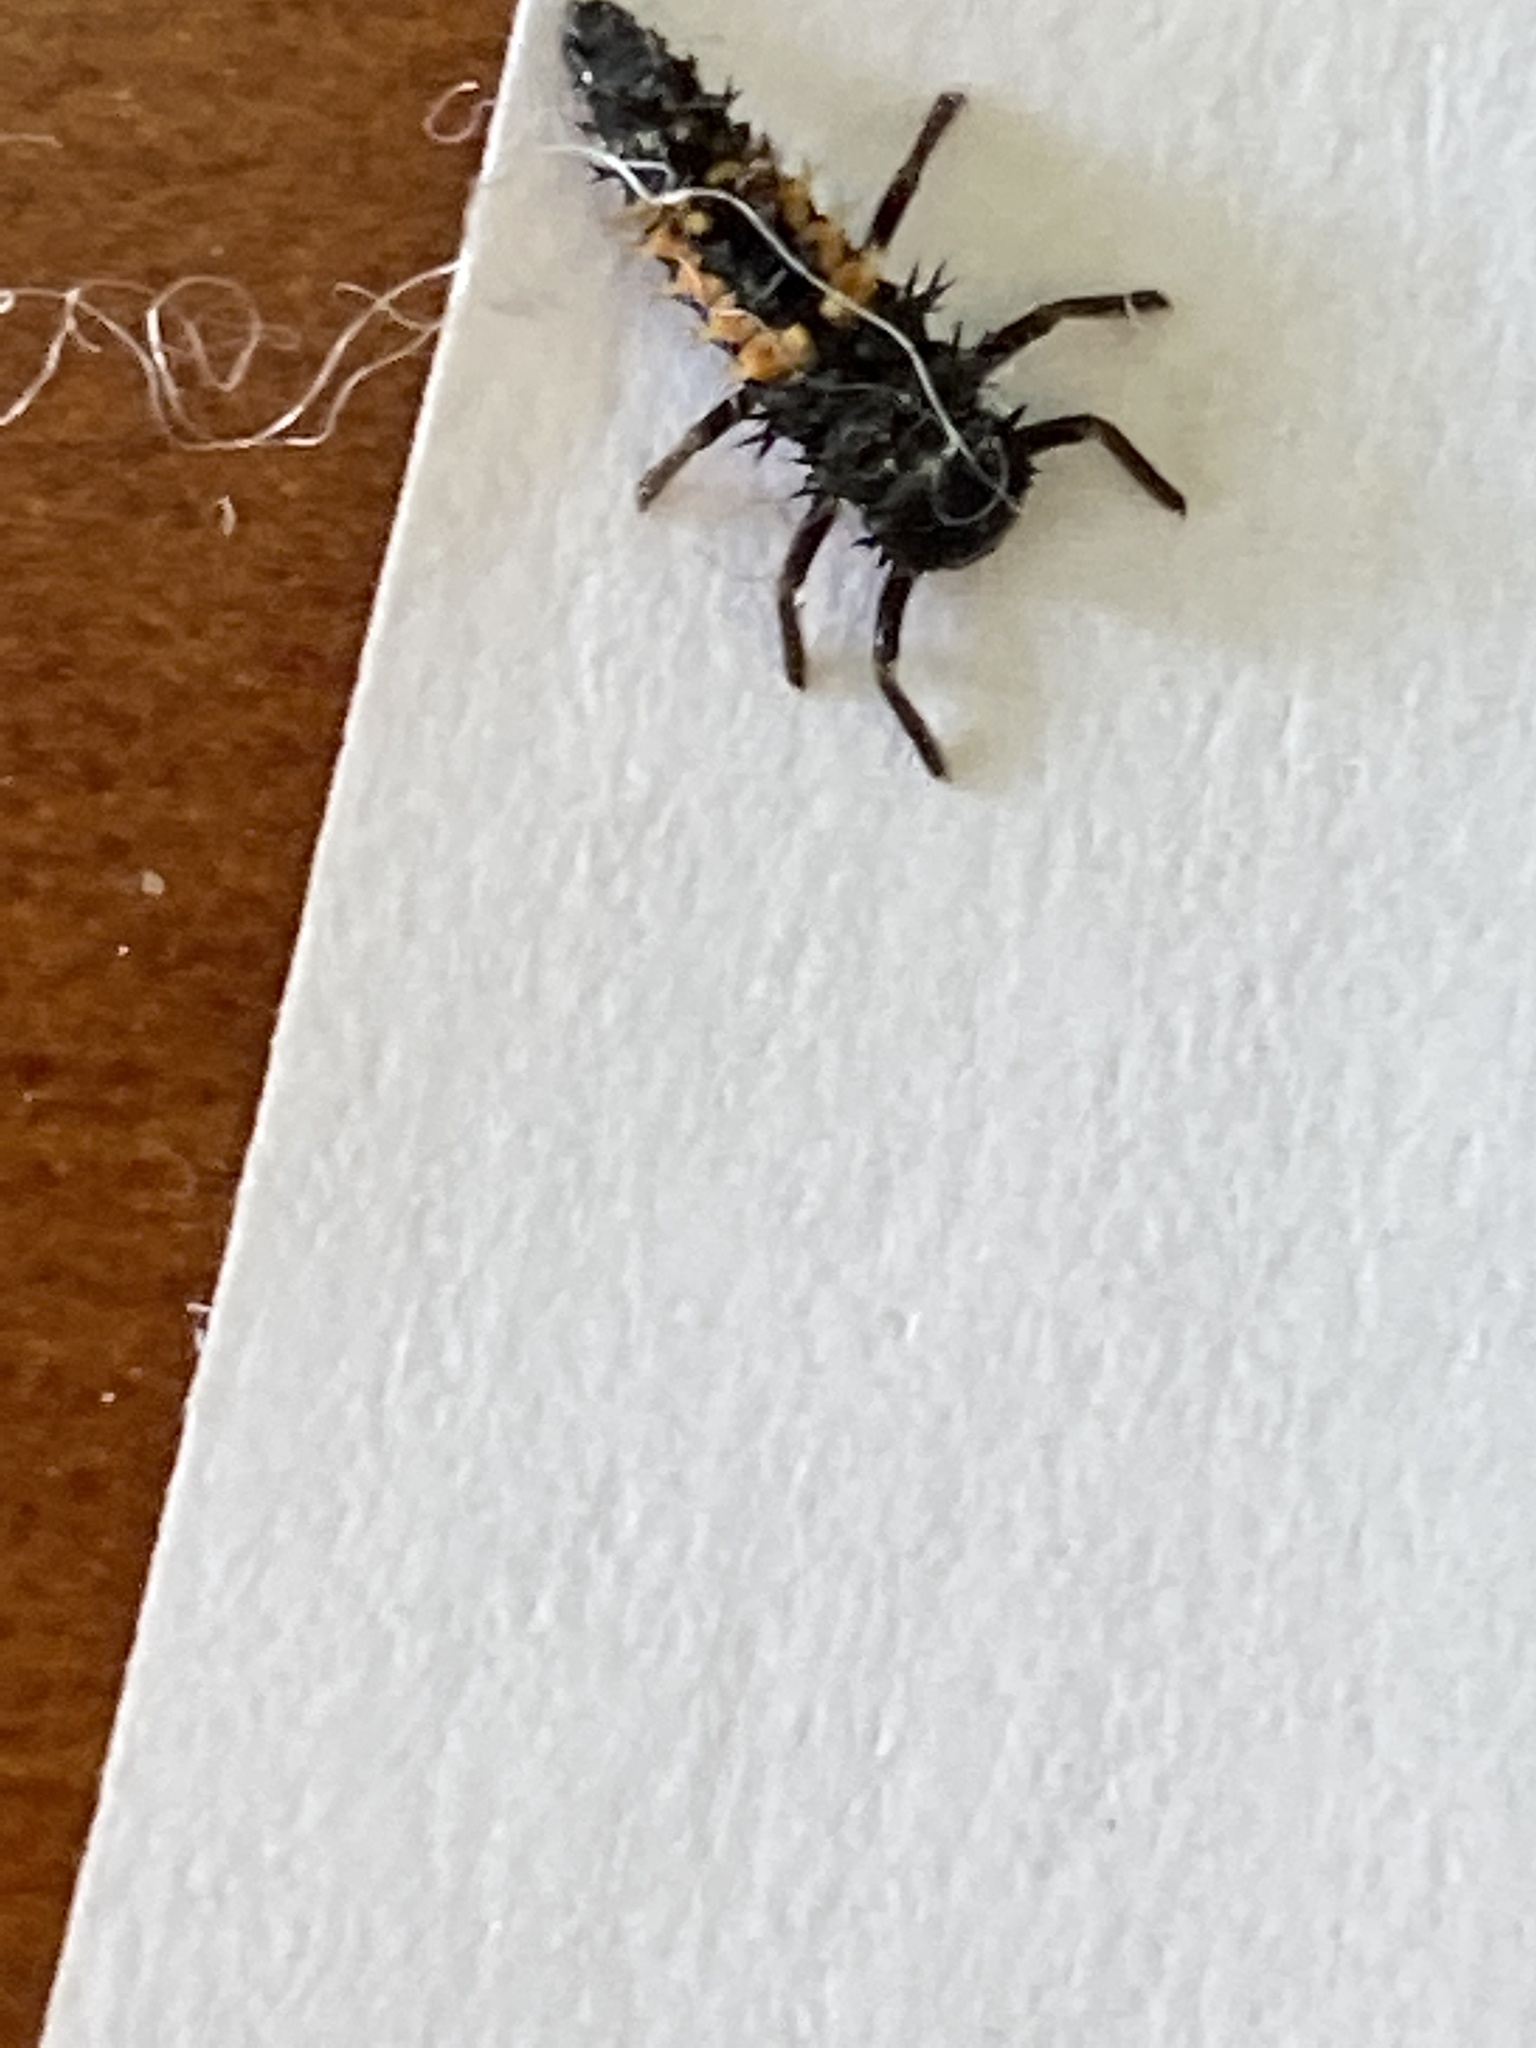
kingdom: Animalia
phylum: Arthropoda
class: Insecta
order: Coleoptera
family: Coccinellidae
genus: Harmonia
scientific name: Harmonia axyridis
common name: Harlequin ladybird
